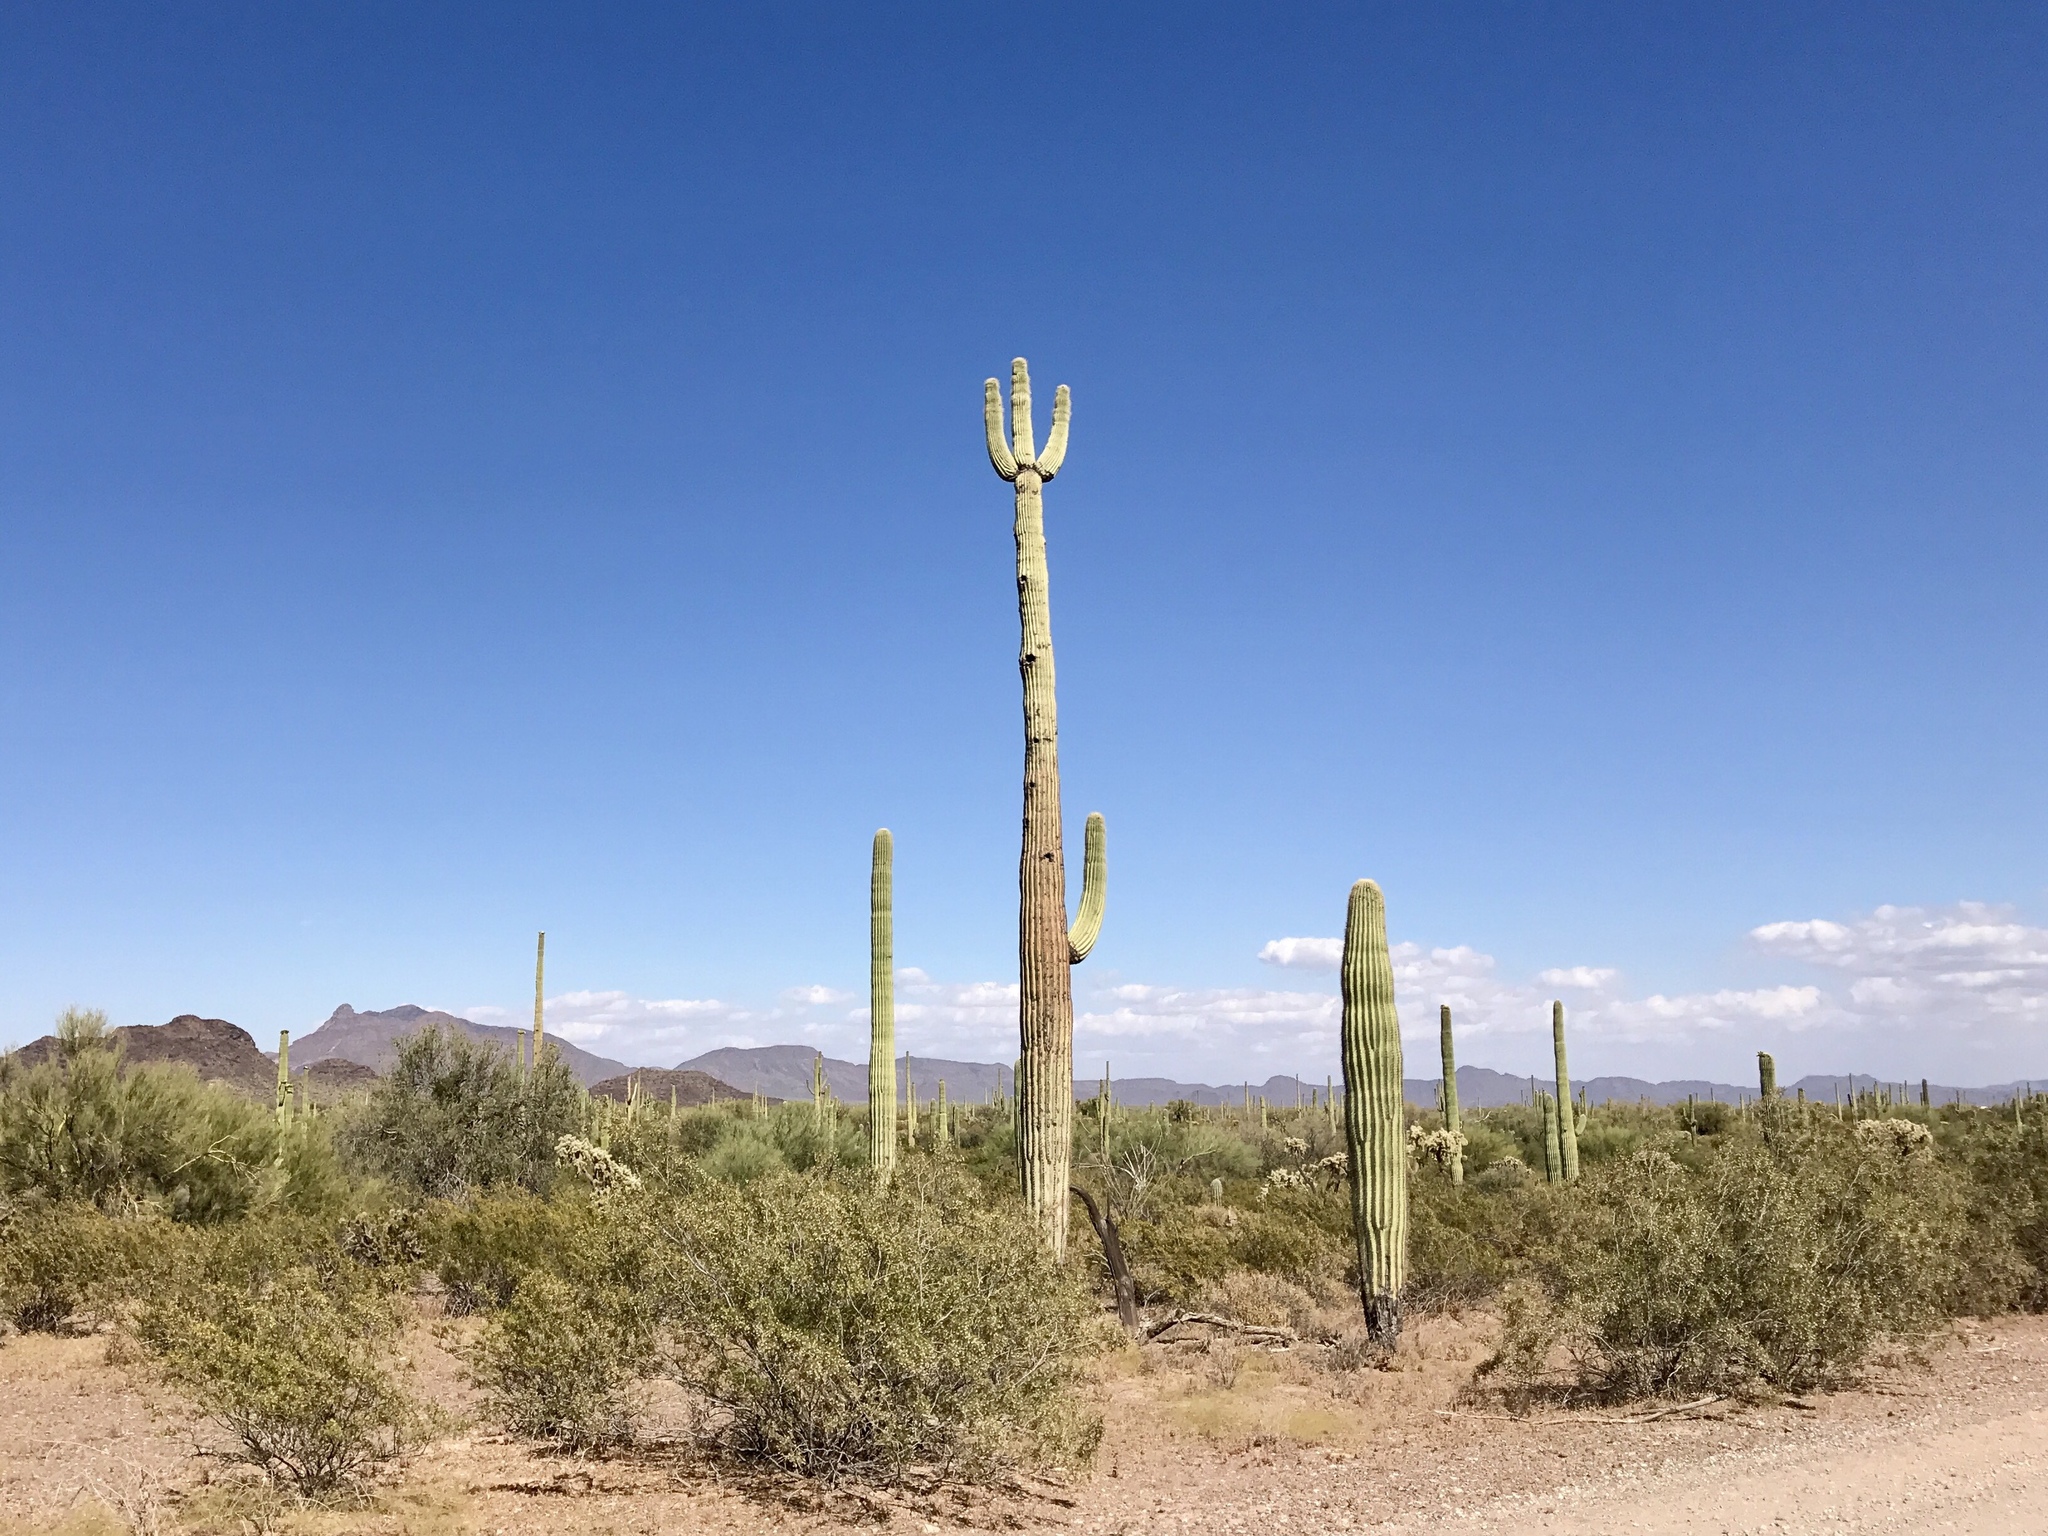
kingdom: Plantae
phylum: Tracheophyta
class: Magnoliopsida
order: Caryophyllales
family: Cactaceae
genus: Carnegiea
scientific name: Carnegiea gigantea
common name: Saguaro
